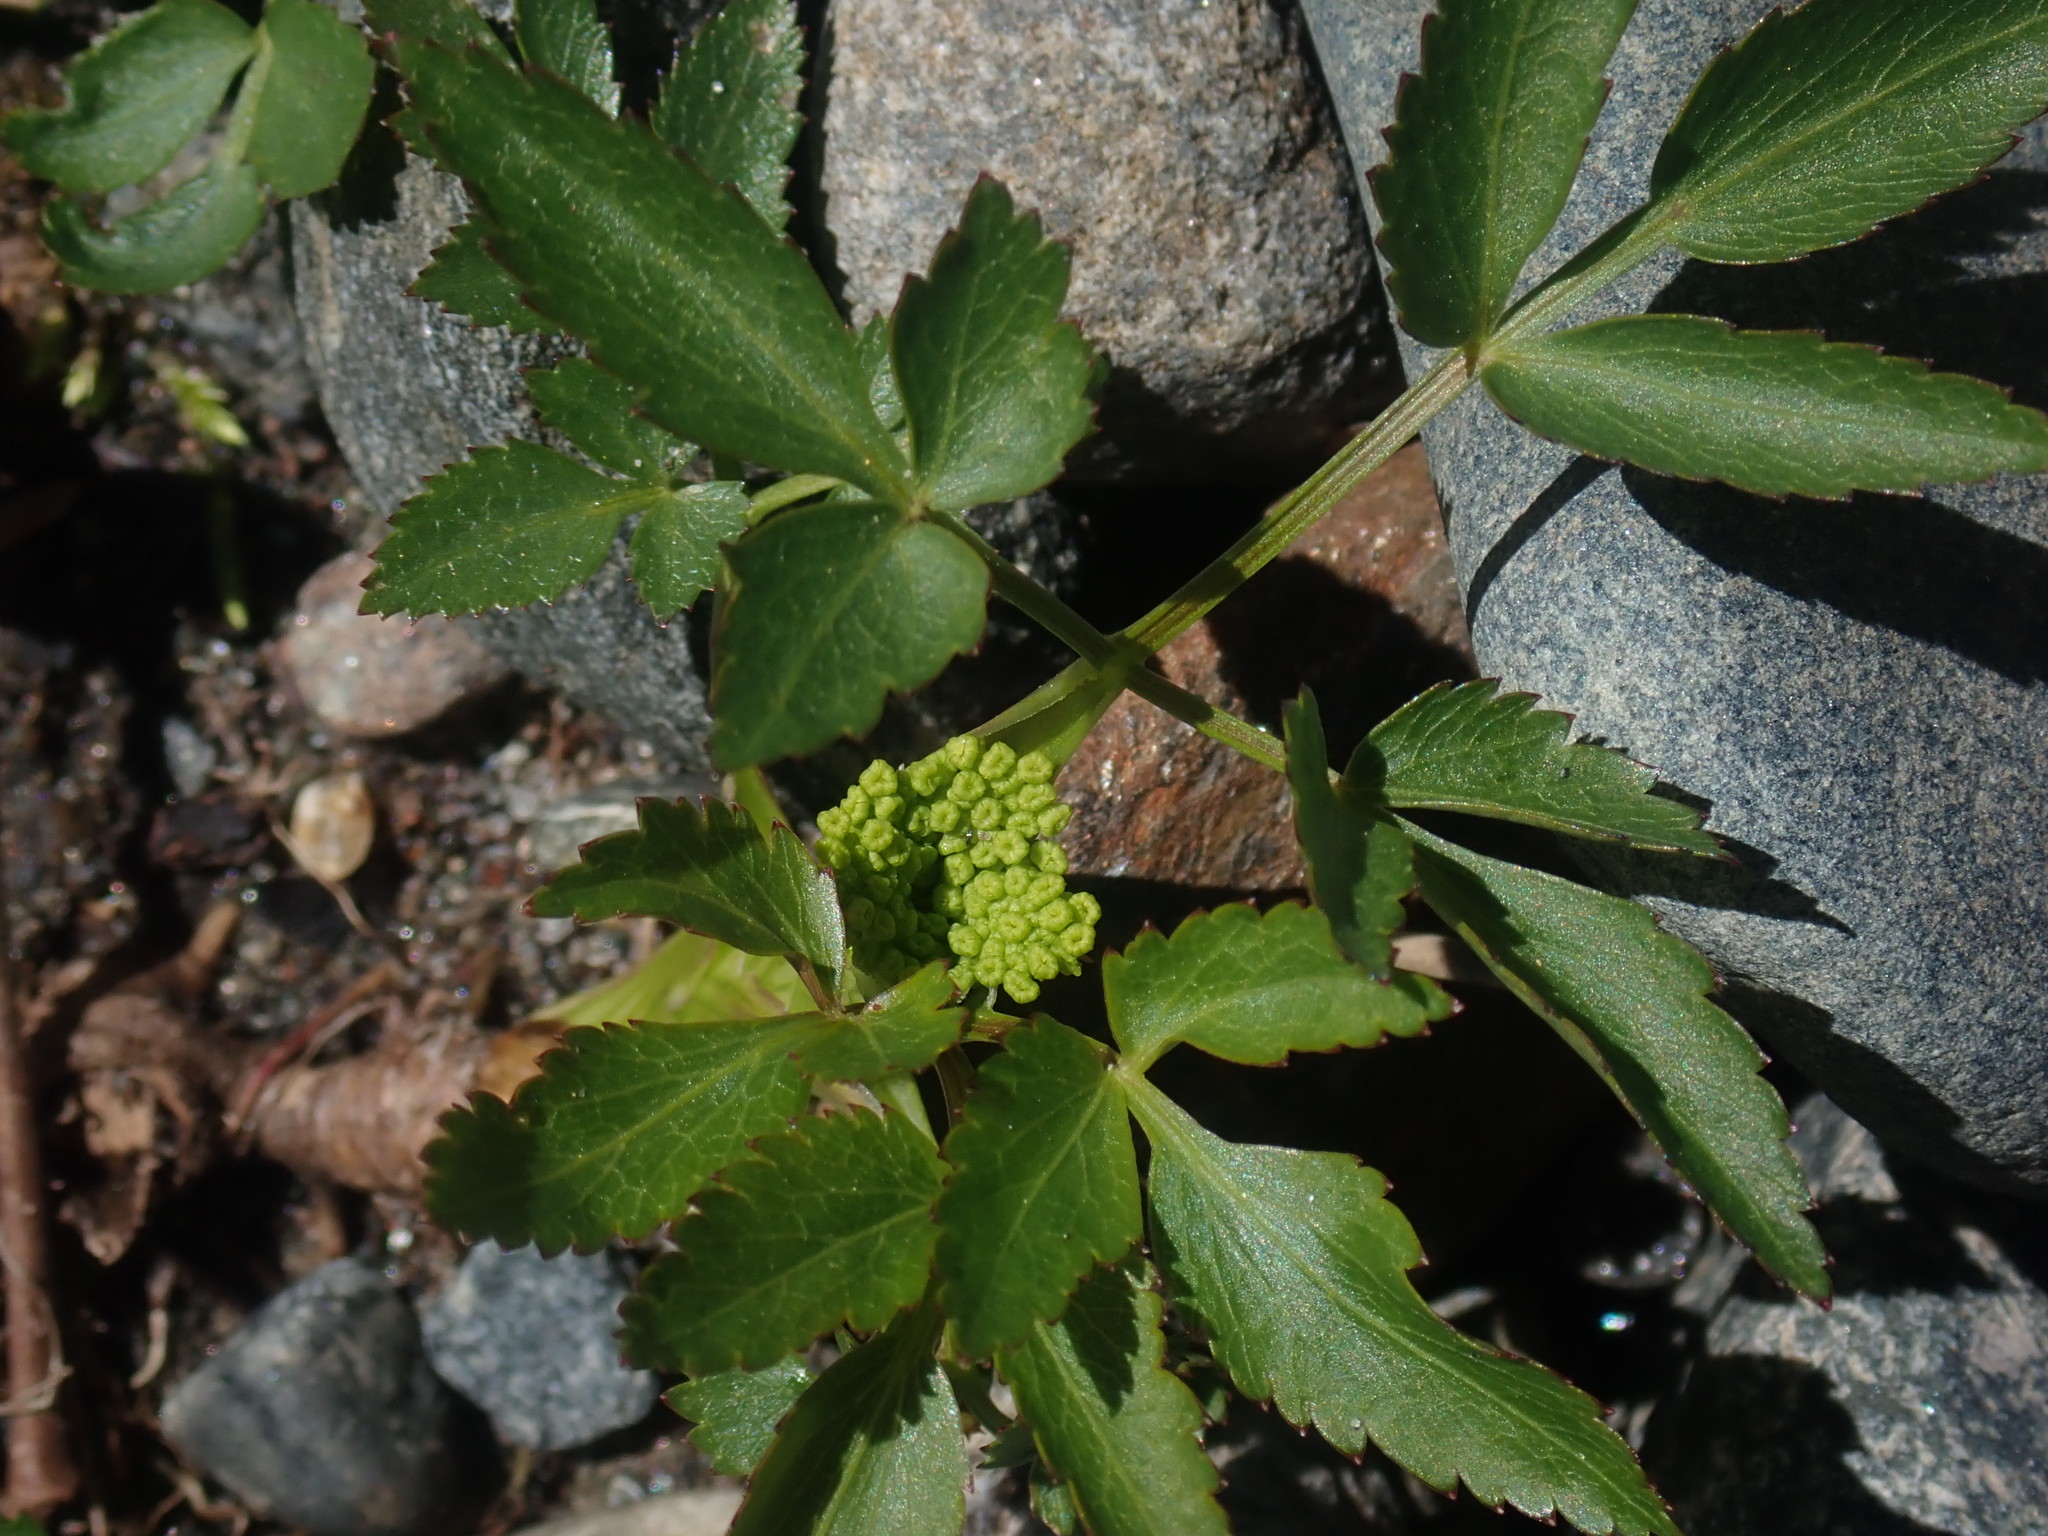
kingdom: Plantae
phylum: Tracheophyta
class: Magnoliopsida
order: Apiales
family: Apiaceae
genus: Zizia
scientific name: Zizia aurea
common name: Golden alexanders
